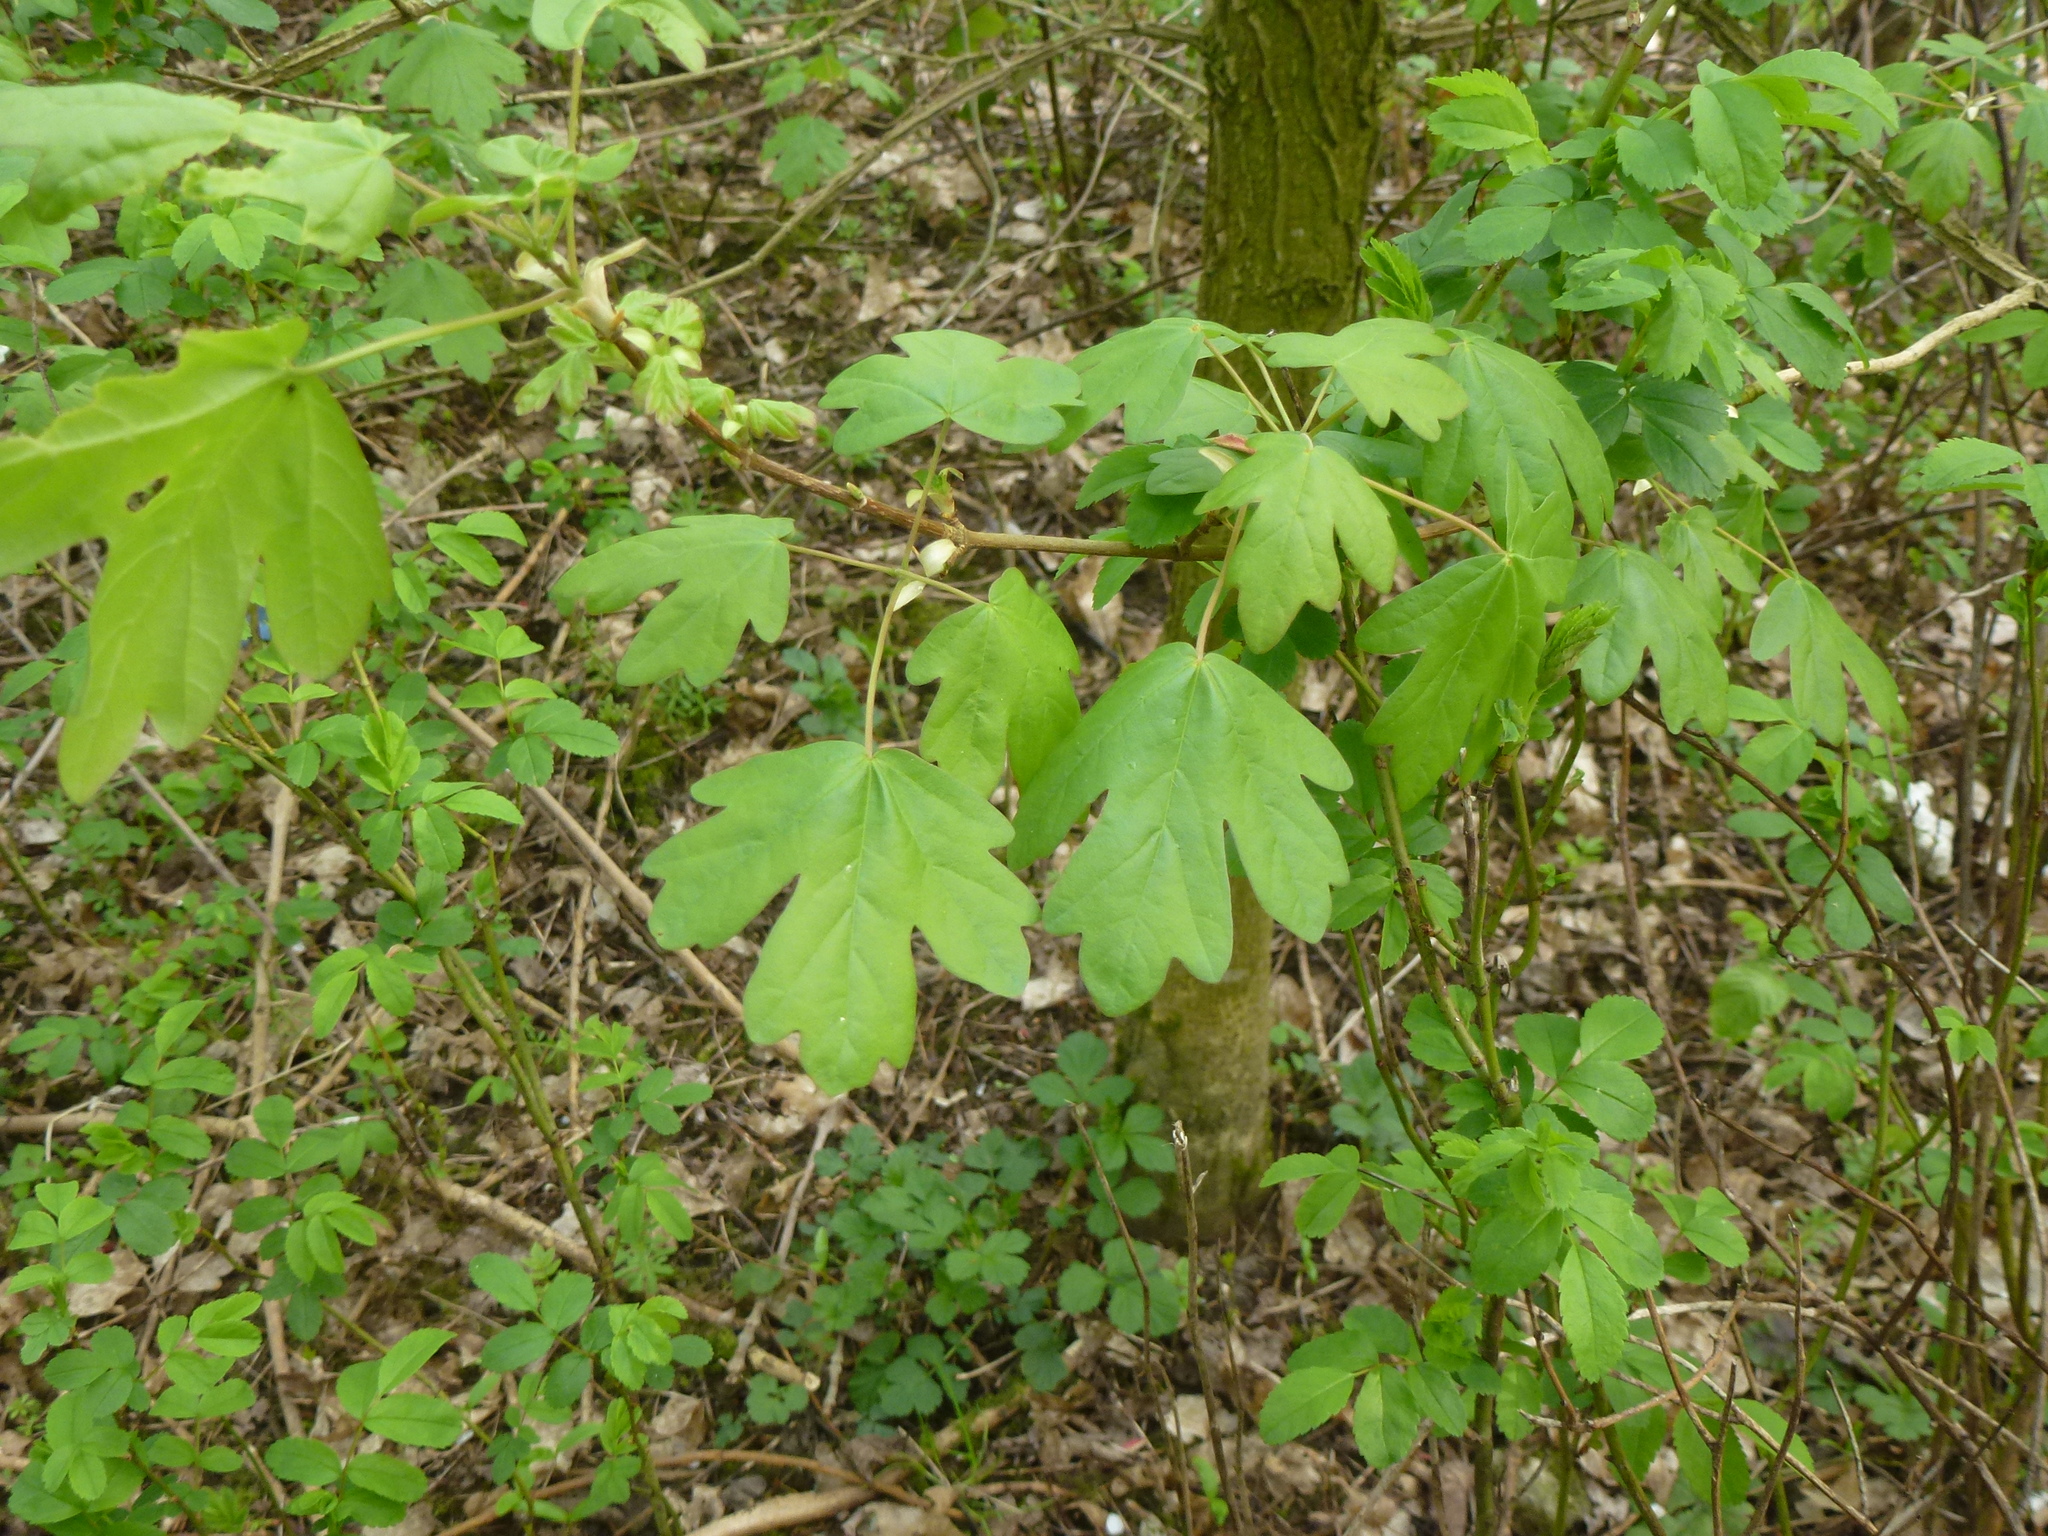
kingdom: Plantae
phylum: Tracheophyta
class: Magnoliopsida
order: Sapindales
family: Sapindaceae
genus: Acer
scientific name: Acer campestre
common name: Field maple
